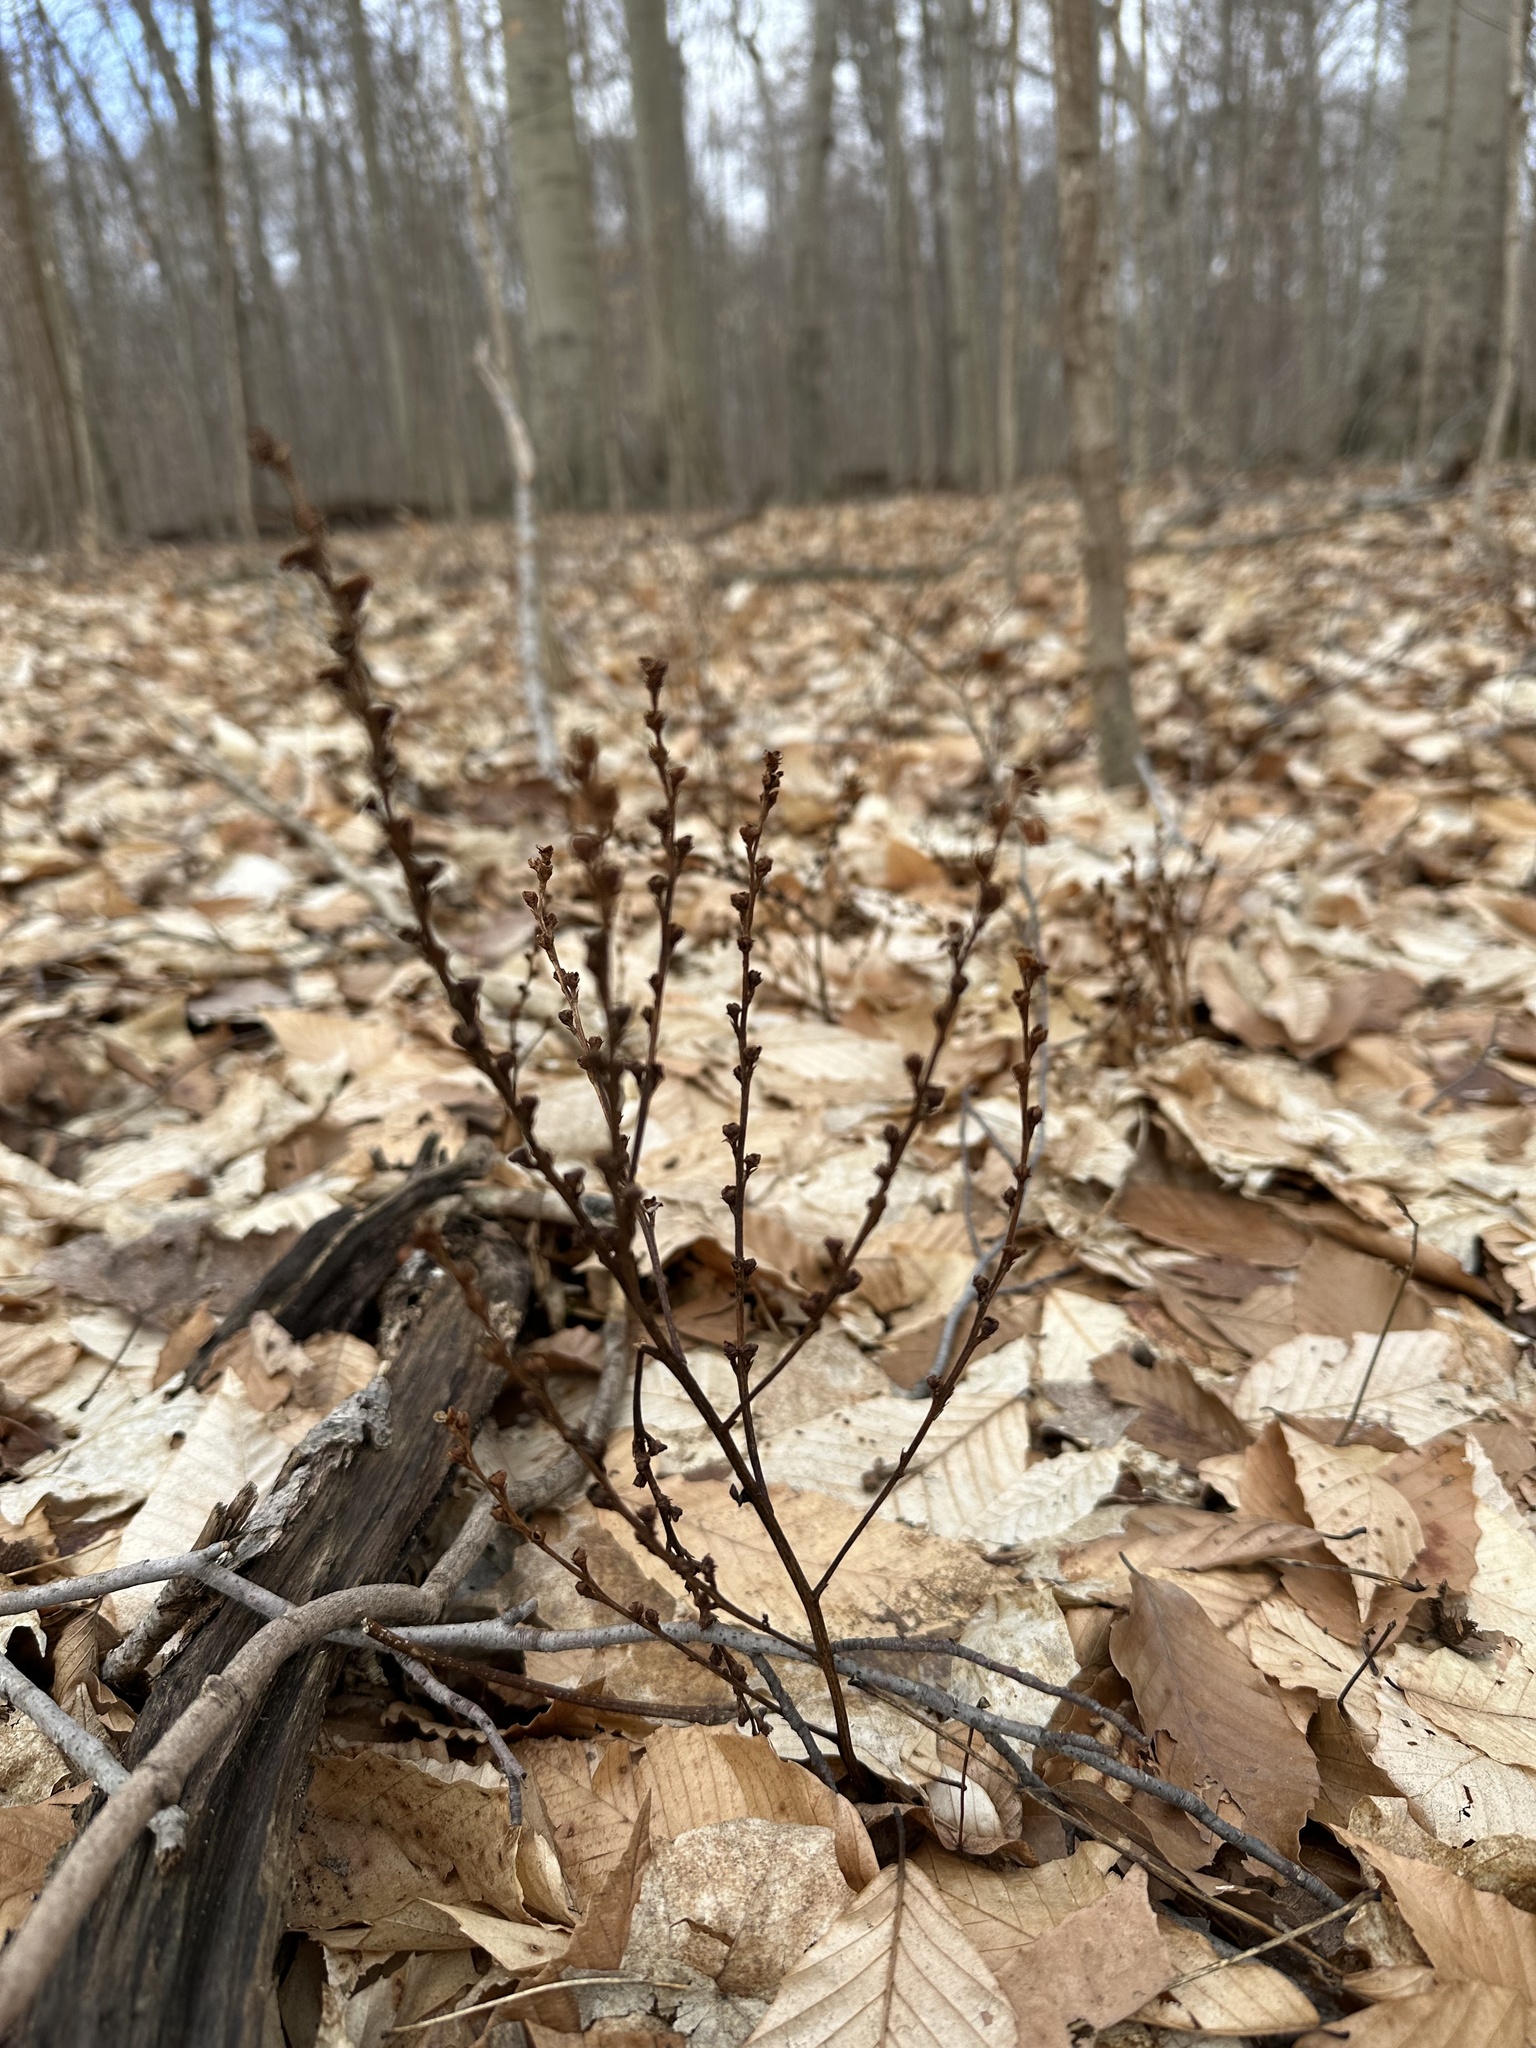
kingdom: Plantae
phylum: Tracheophyta
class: Magnoliopsida
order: Lamiales
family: Orobanchaceae
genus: Epifagus
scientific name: Epifagus virginiana
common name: Beechdrops
